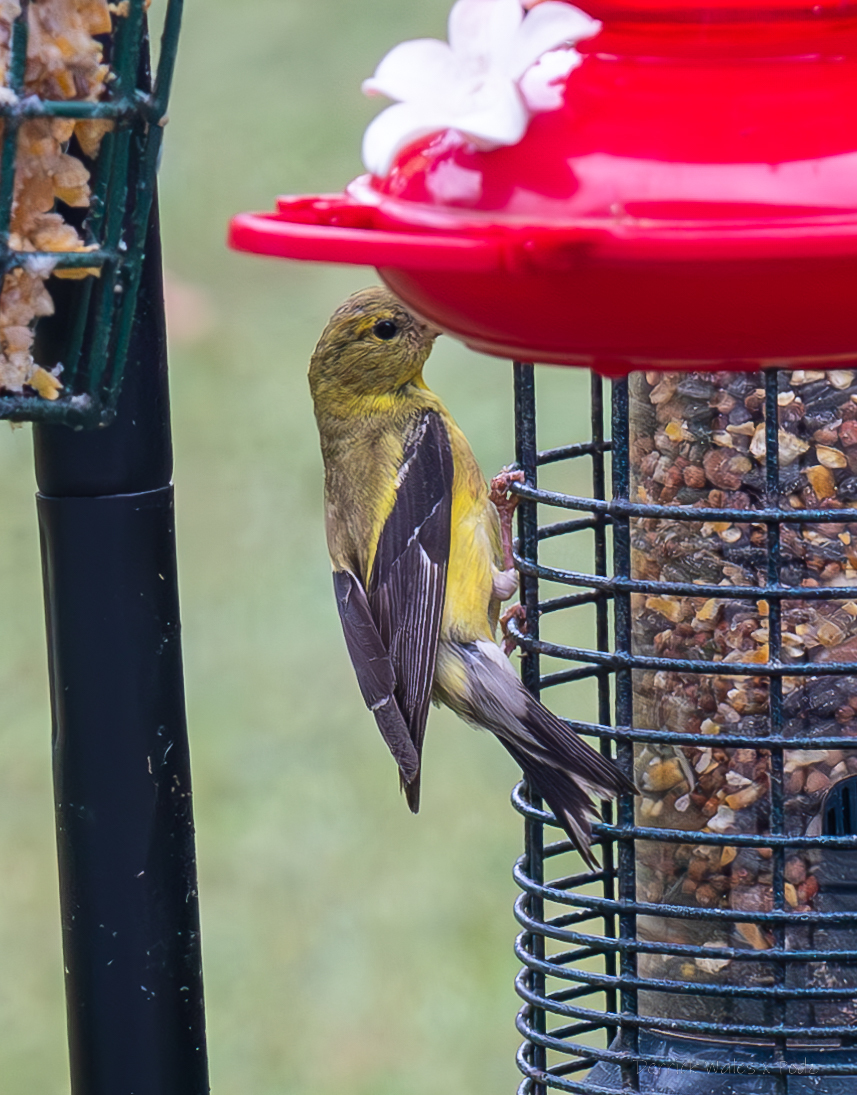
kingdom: Animalia
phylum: Chordata
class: Aves
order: Passeriformes
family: Fringillidae
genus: Spinus
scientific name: Spinus tristis
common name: American goldfinch
